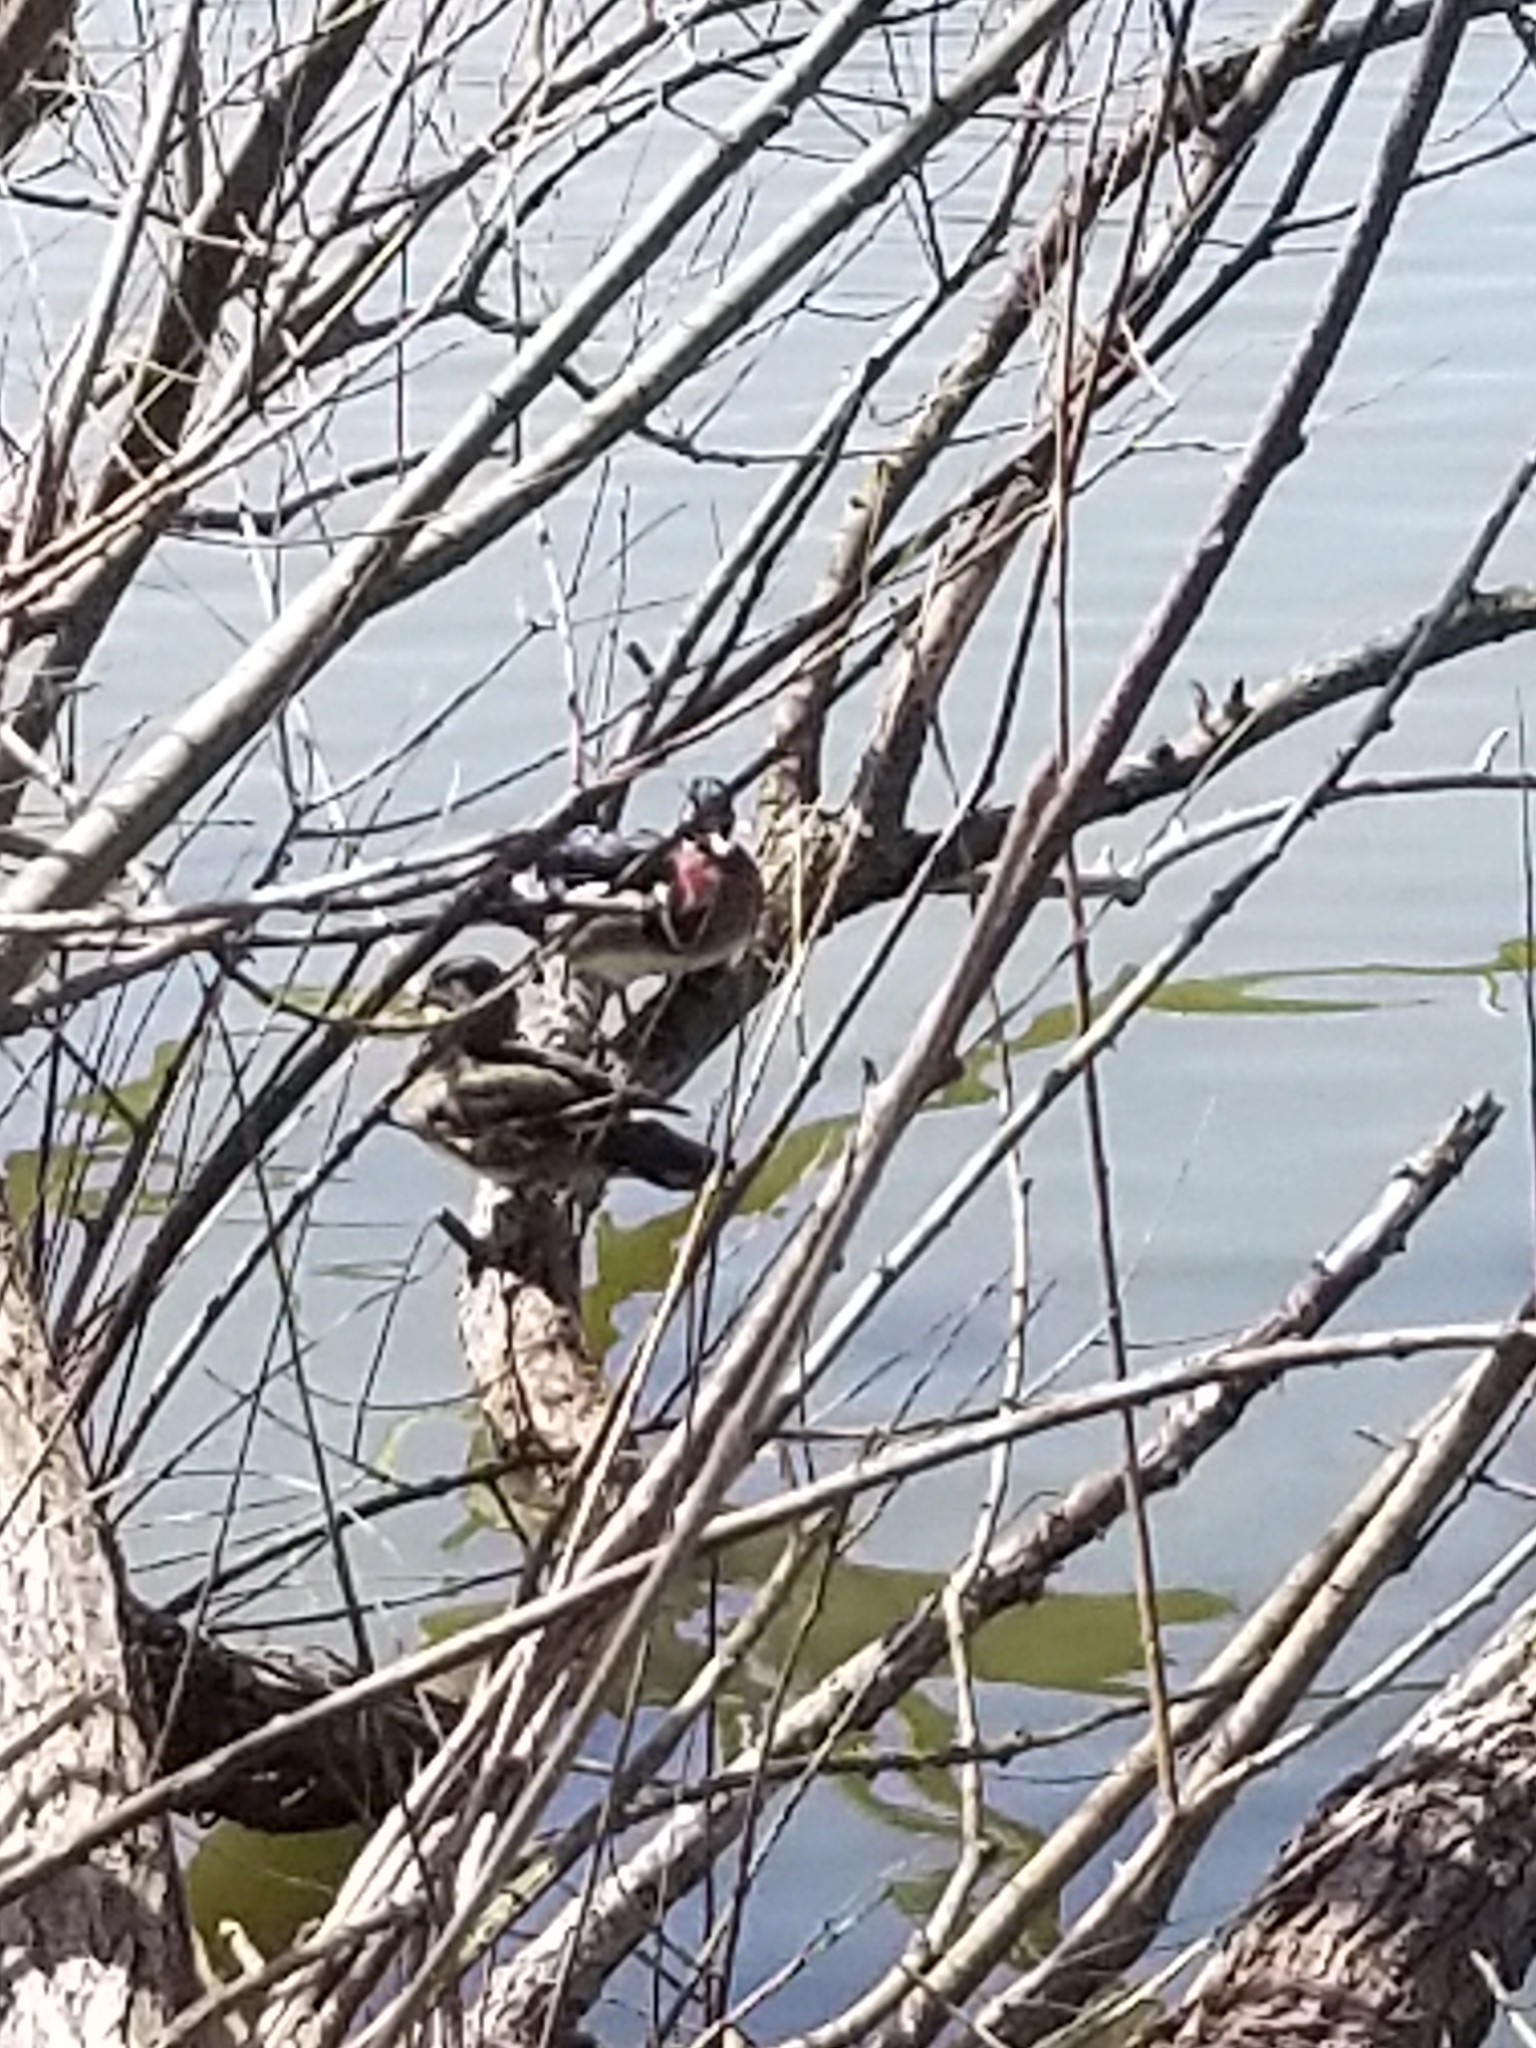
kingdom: Animalia
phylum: Chordata
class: Aves
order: Anseriformes
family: Anatidae
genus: Aix
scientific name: Aix sponsa
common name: Wood duck
